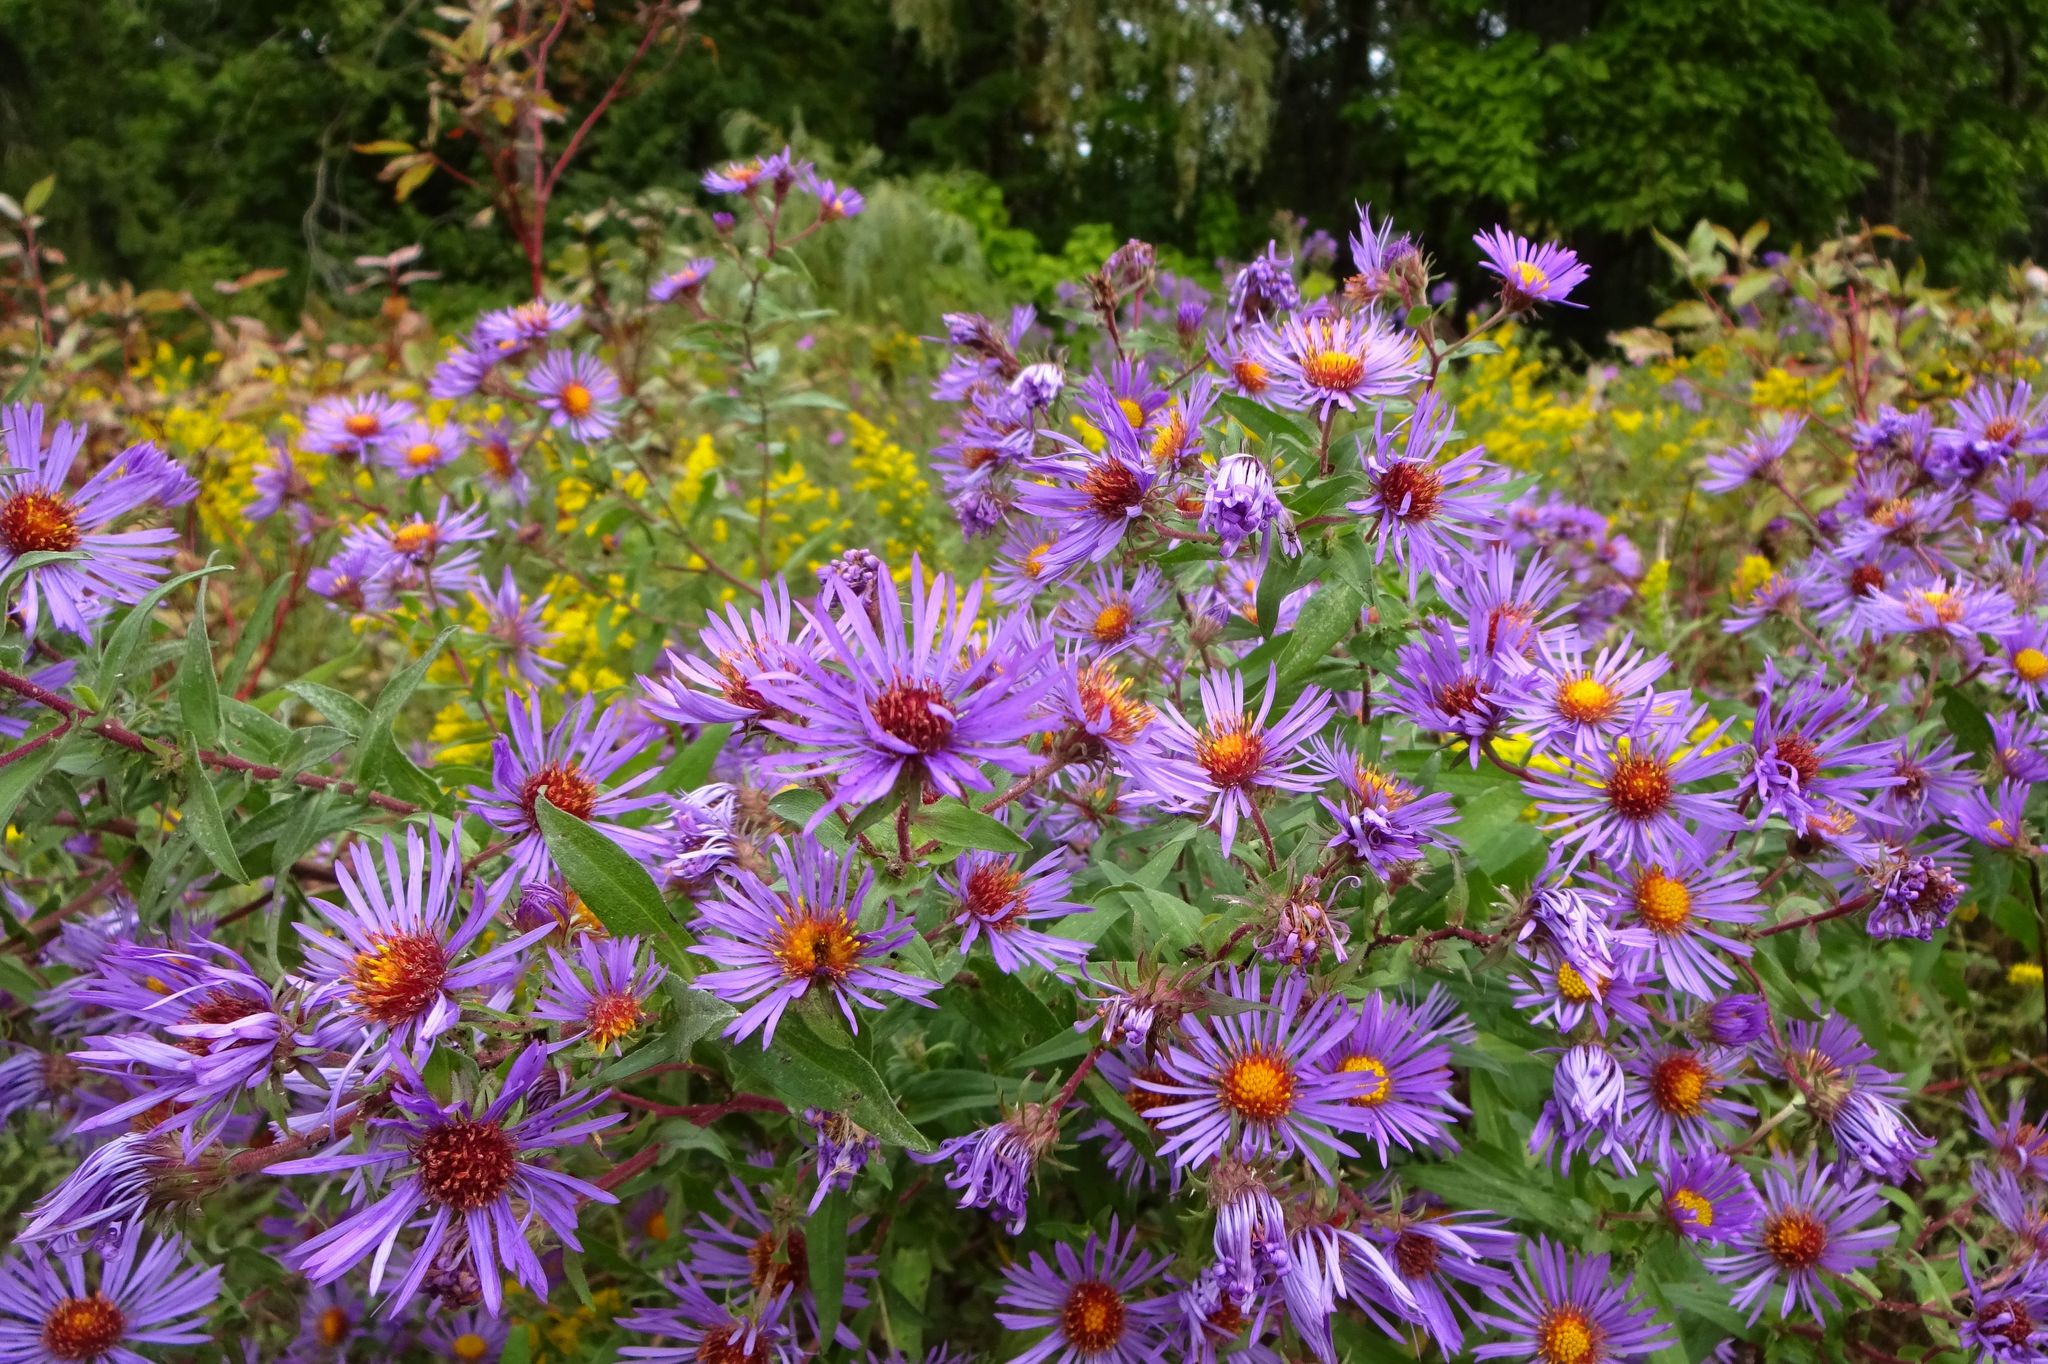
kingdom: Plantae
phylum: Tracheophyta
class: Magnoliopsida
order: Asterales
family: Asteraceae
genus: Symphyotrichum
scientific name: Symphyotrichum novae-angliae
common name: Michaelmas daisy
